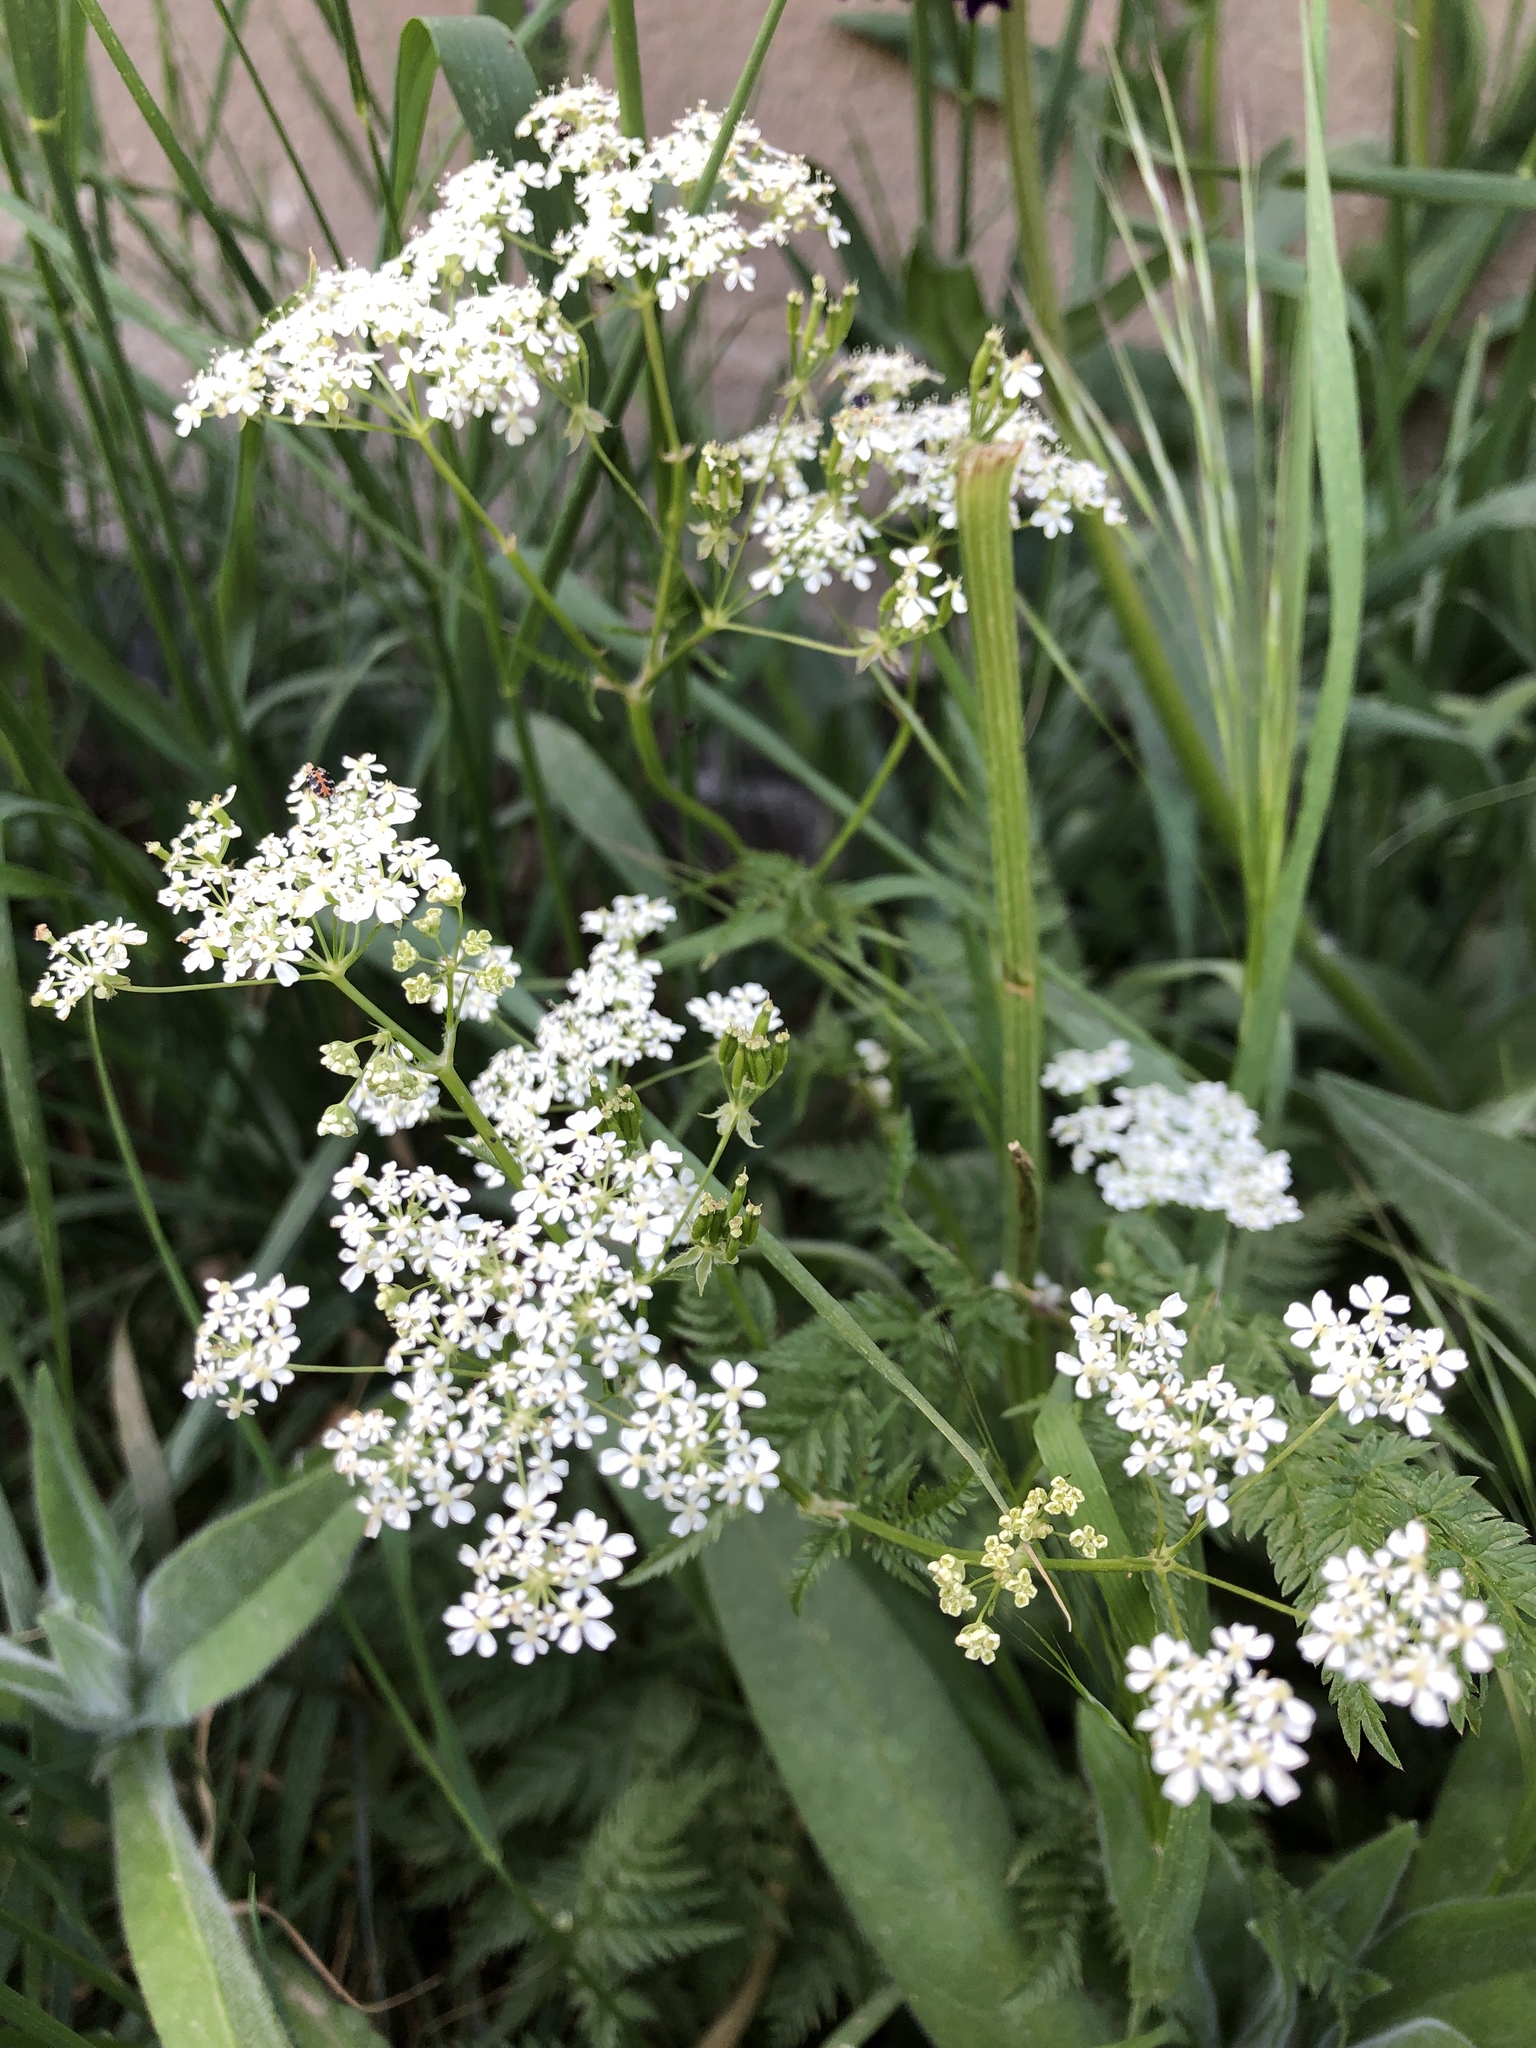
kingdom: Plantae
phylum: Tracheophyta
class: Magnoliopsida
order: Apiales
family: Apiaceae
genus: Anthriscus
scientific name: Anthriscus sylvestris
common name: Cow parsley
